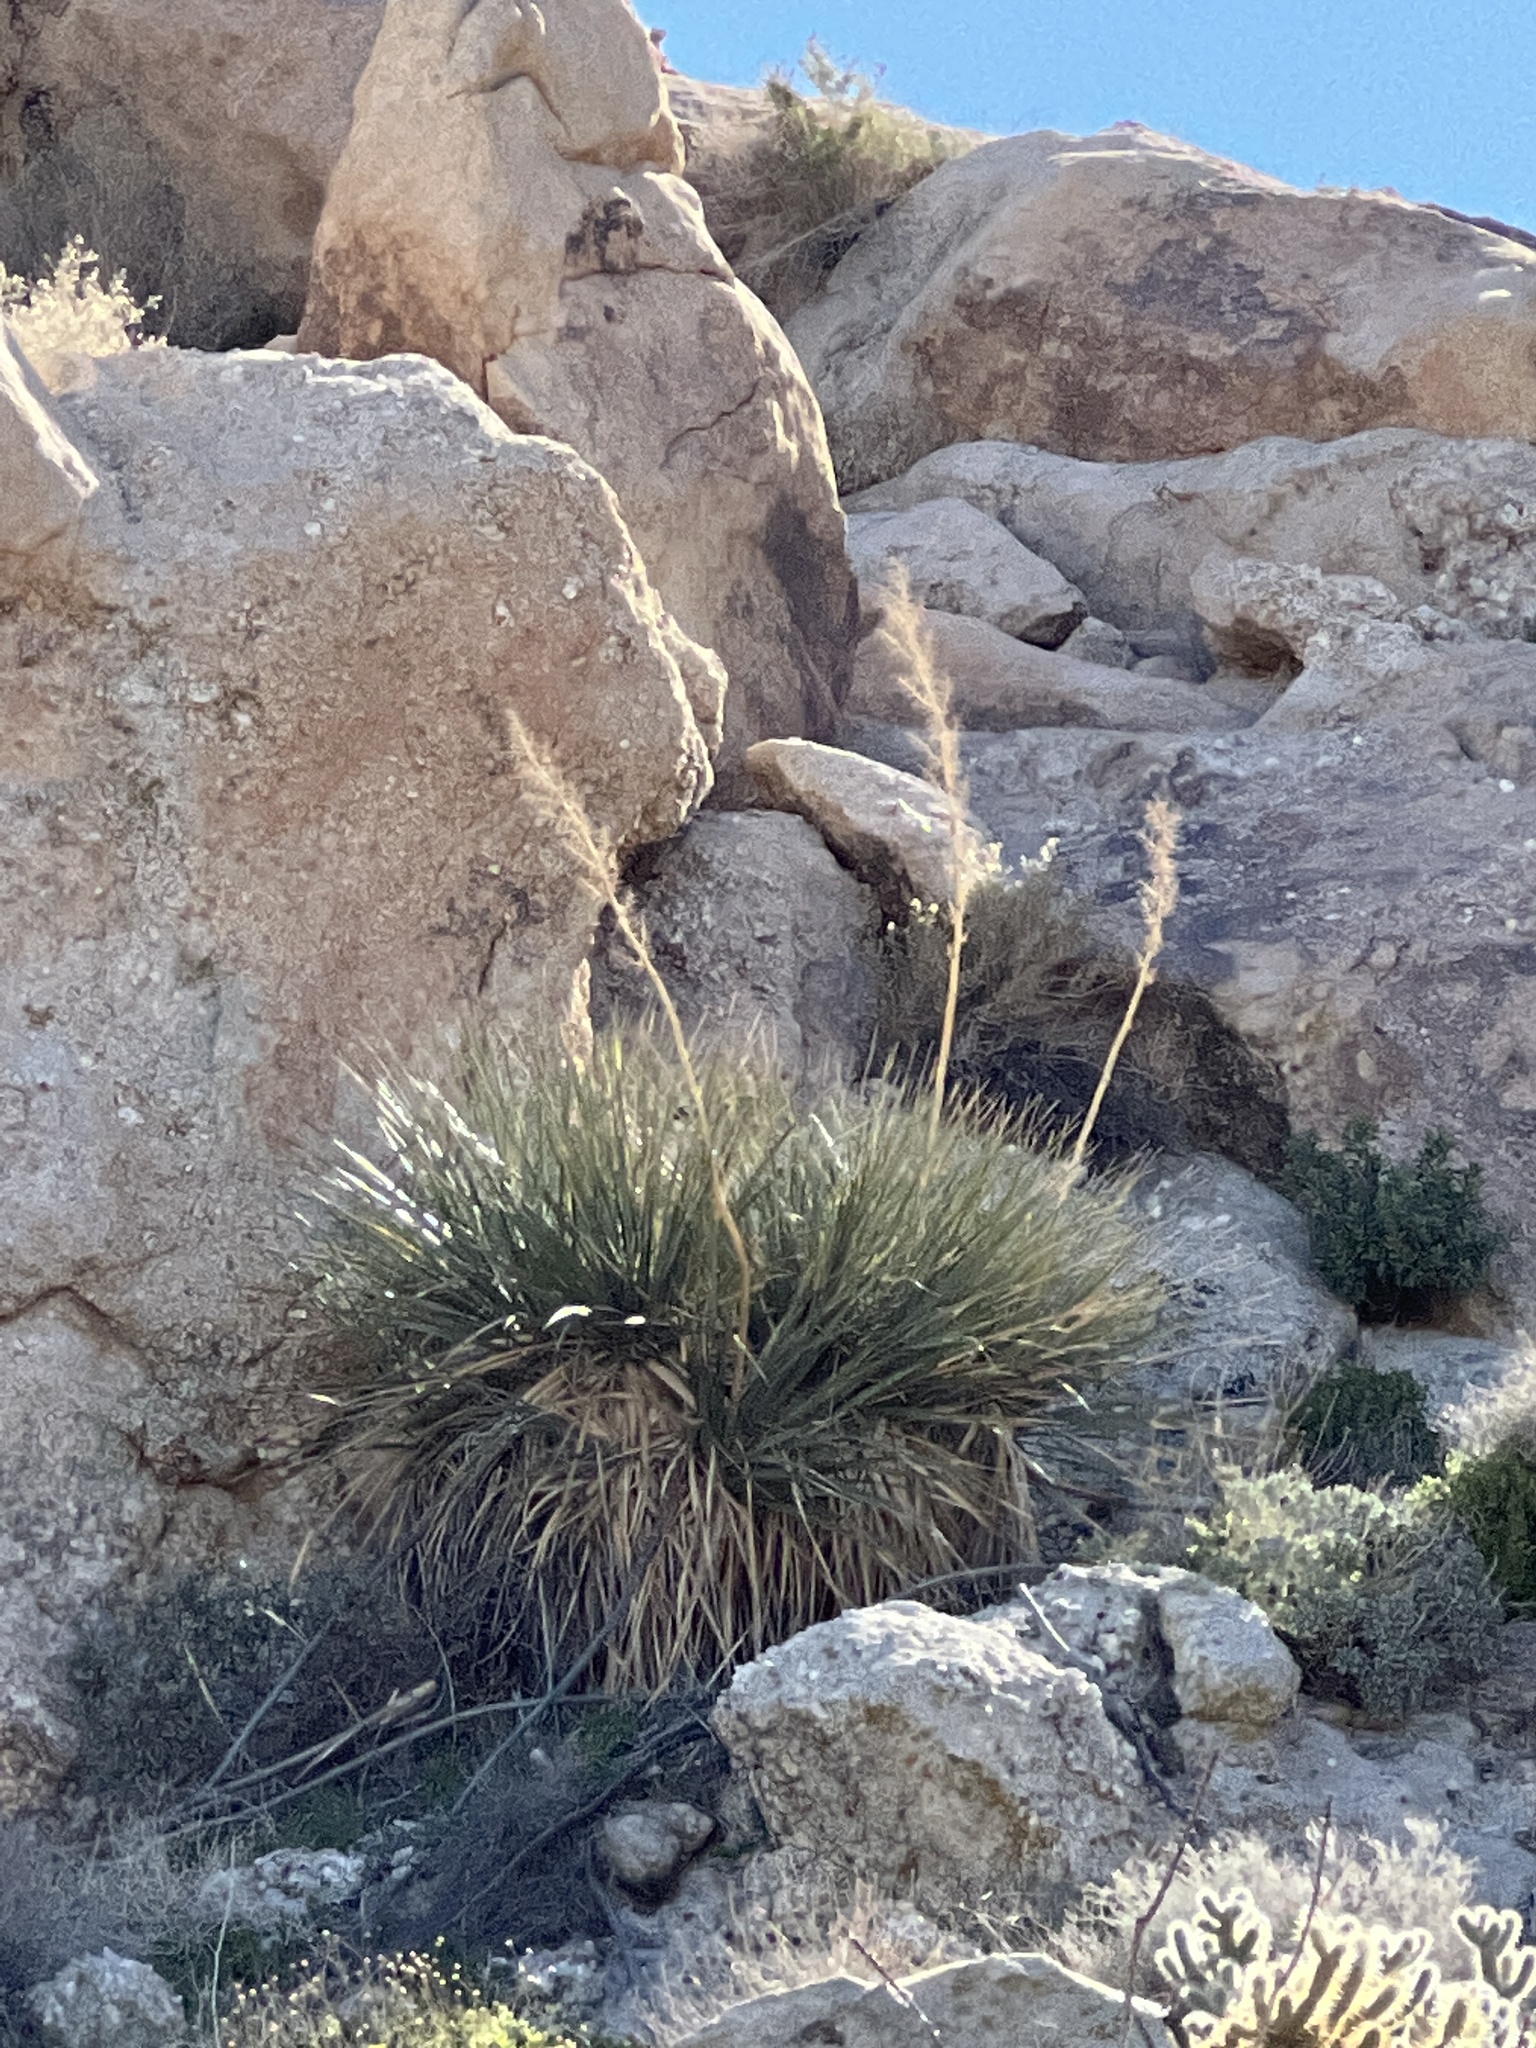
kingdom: Plantae
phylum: Tracheophyta
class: Liliopsida
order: Asparagales
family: Asparagaceae
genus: Nolina
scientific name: Nolina bigelovii
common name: Bigelow bear-grass
